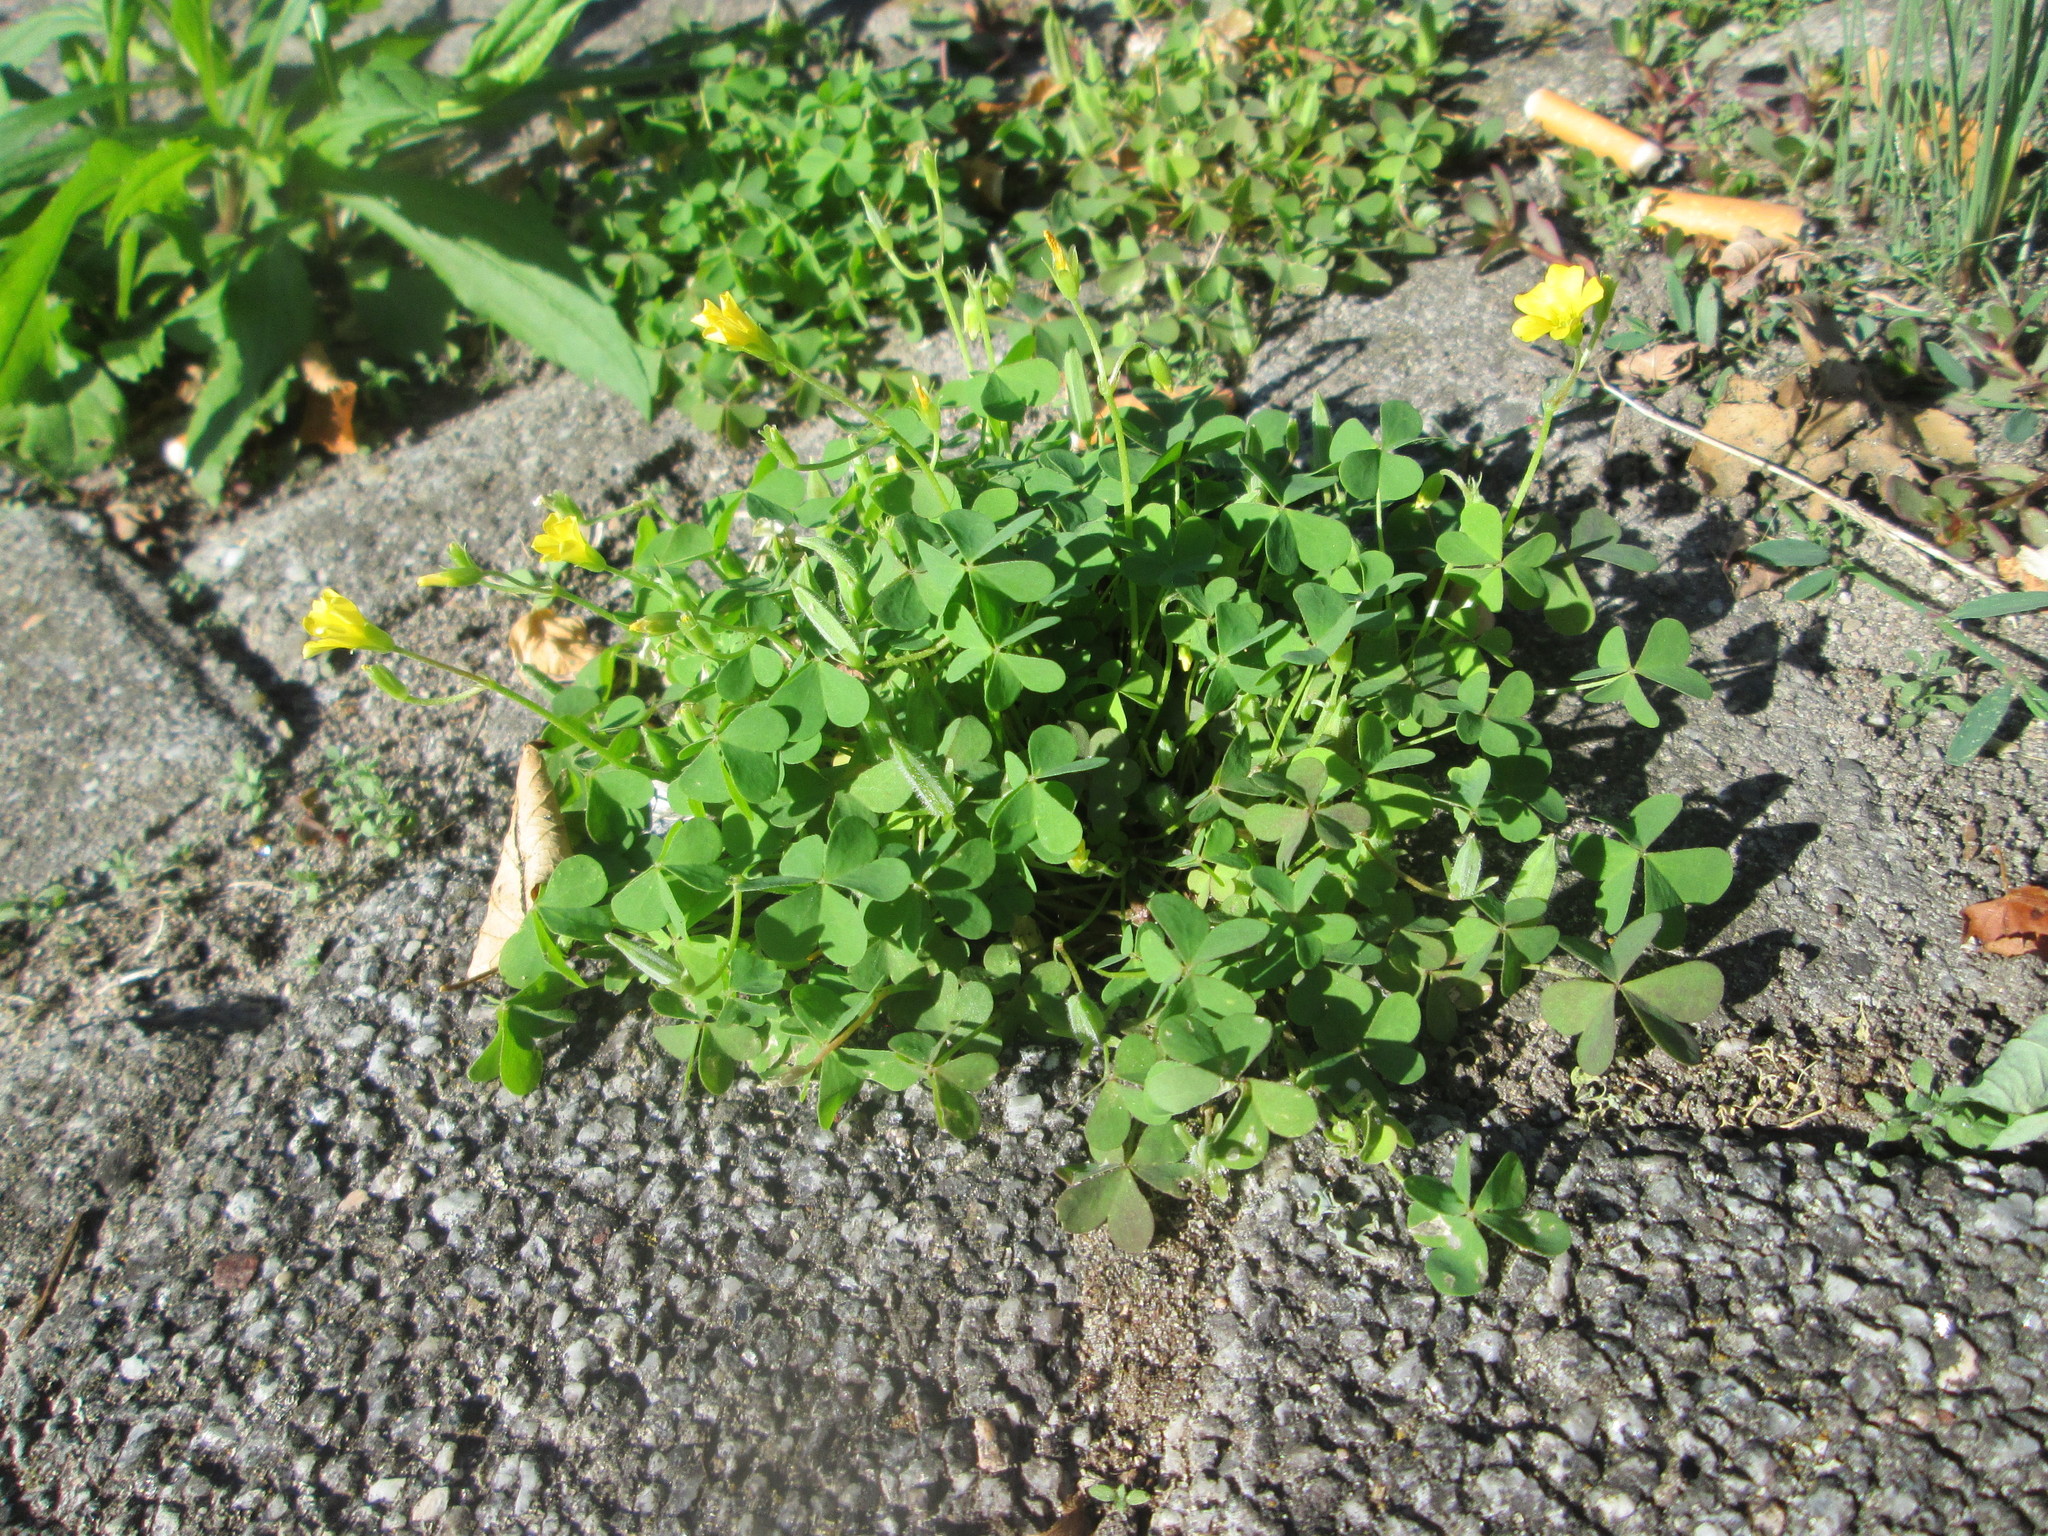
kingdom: Plantae
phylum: Tracheophyta
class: Magnoliopsida
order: Oxalidales
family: Oxalidaceae
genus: Oxalis
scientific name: Oxalis stricta
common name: Upright yellow-sorrel
